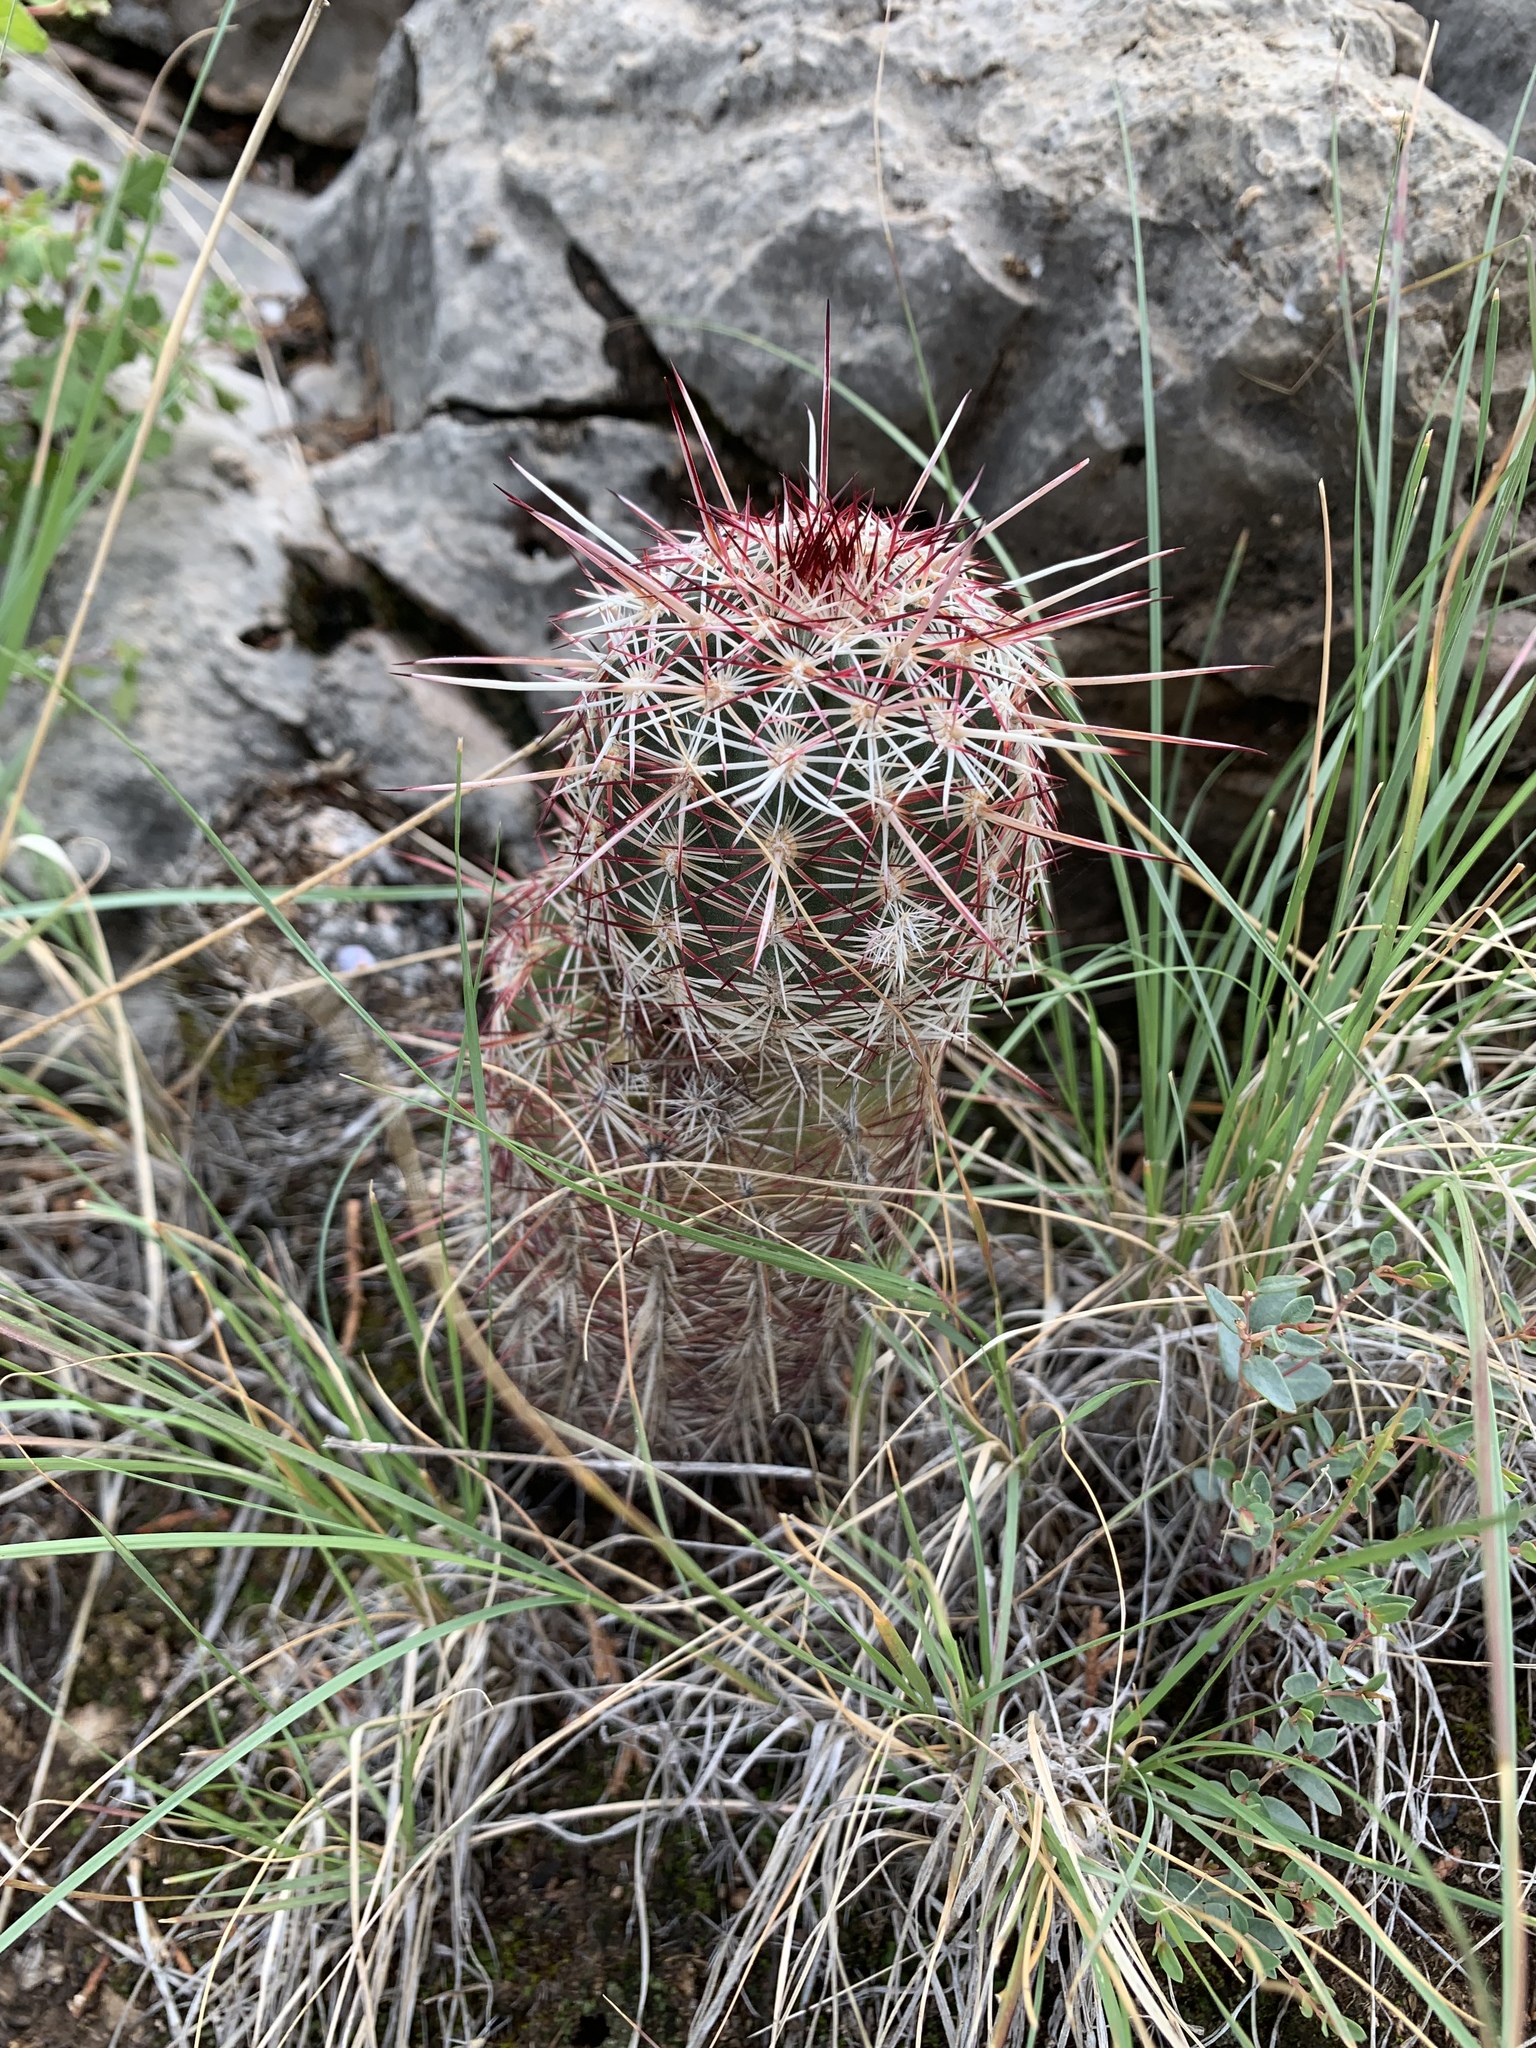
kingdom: Plantae
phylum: Tracheophyta
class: Magnoliopsida
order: Caryophyllales
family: Cactaceae
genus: Echinocereus
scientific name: Echinocereus viridiflorus
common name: Nylon hedgehog cactus
